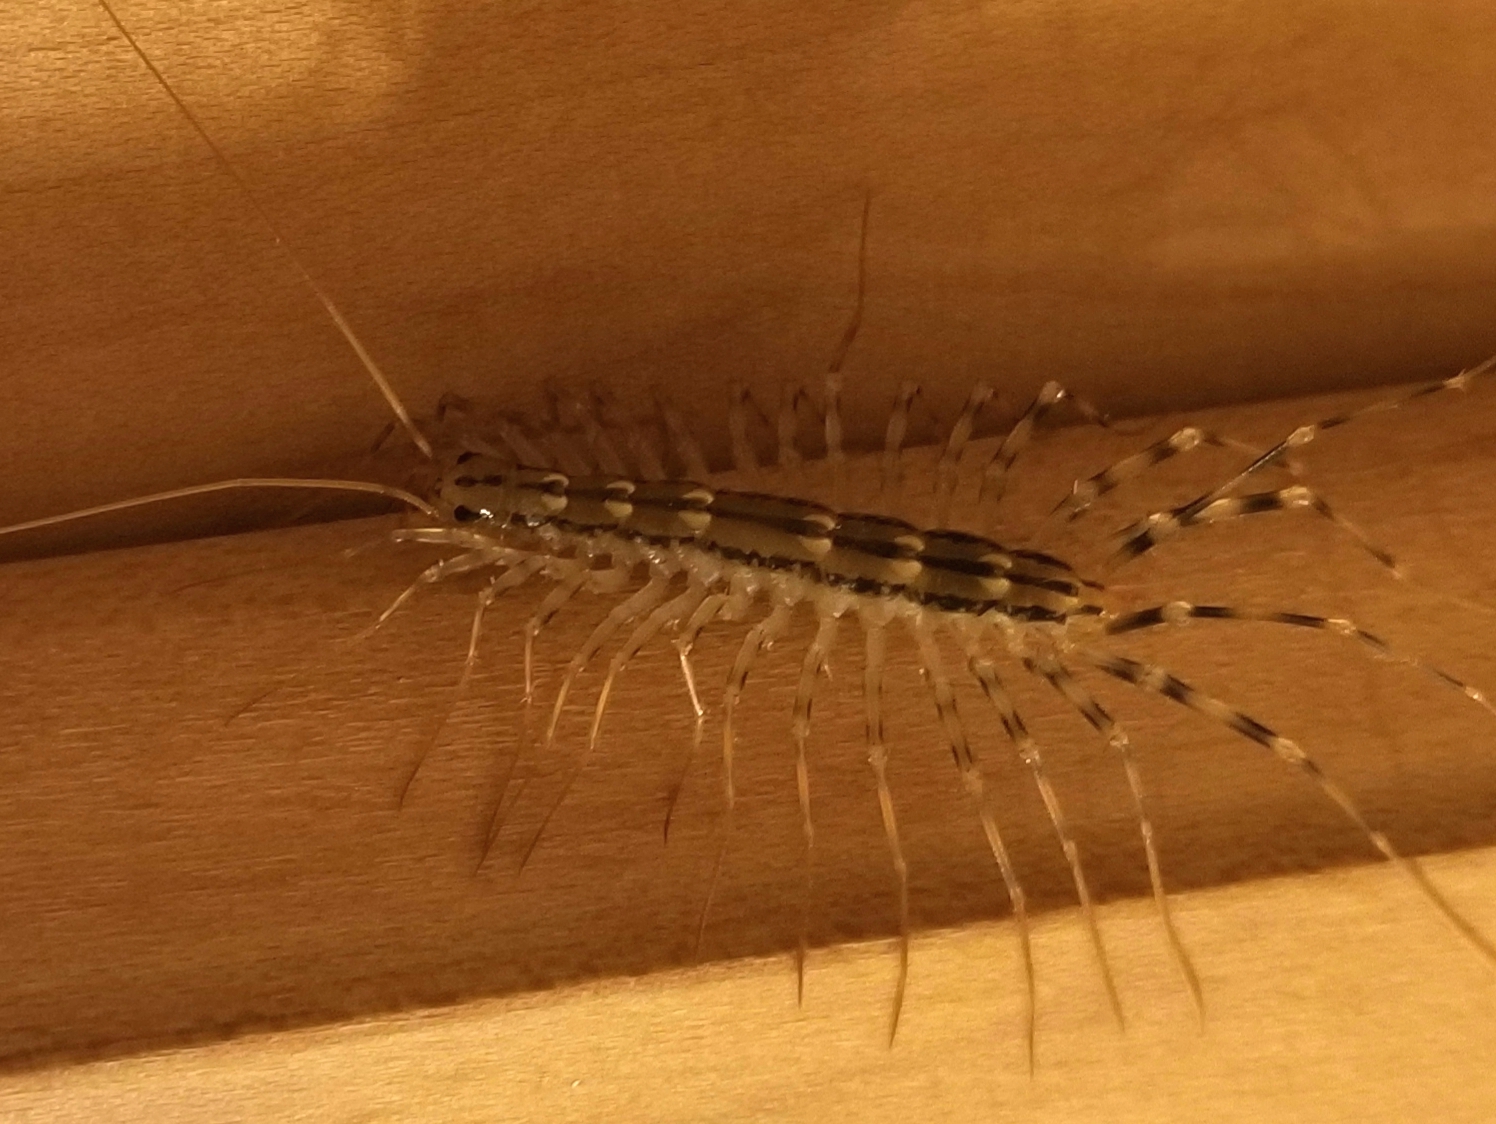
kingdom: Animalia
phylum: Arthropoda
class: Chilopoda
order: Scutigeromorpha
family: Scutigeridae
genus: Scutigera
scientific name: Scutigera coleoptrata
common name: House centipede
